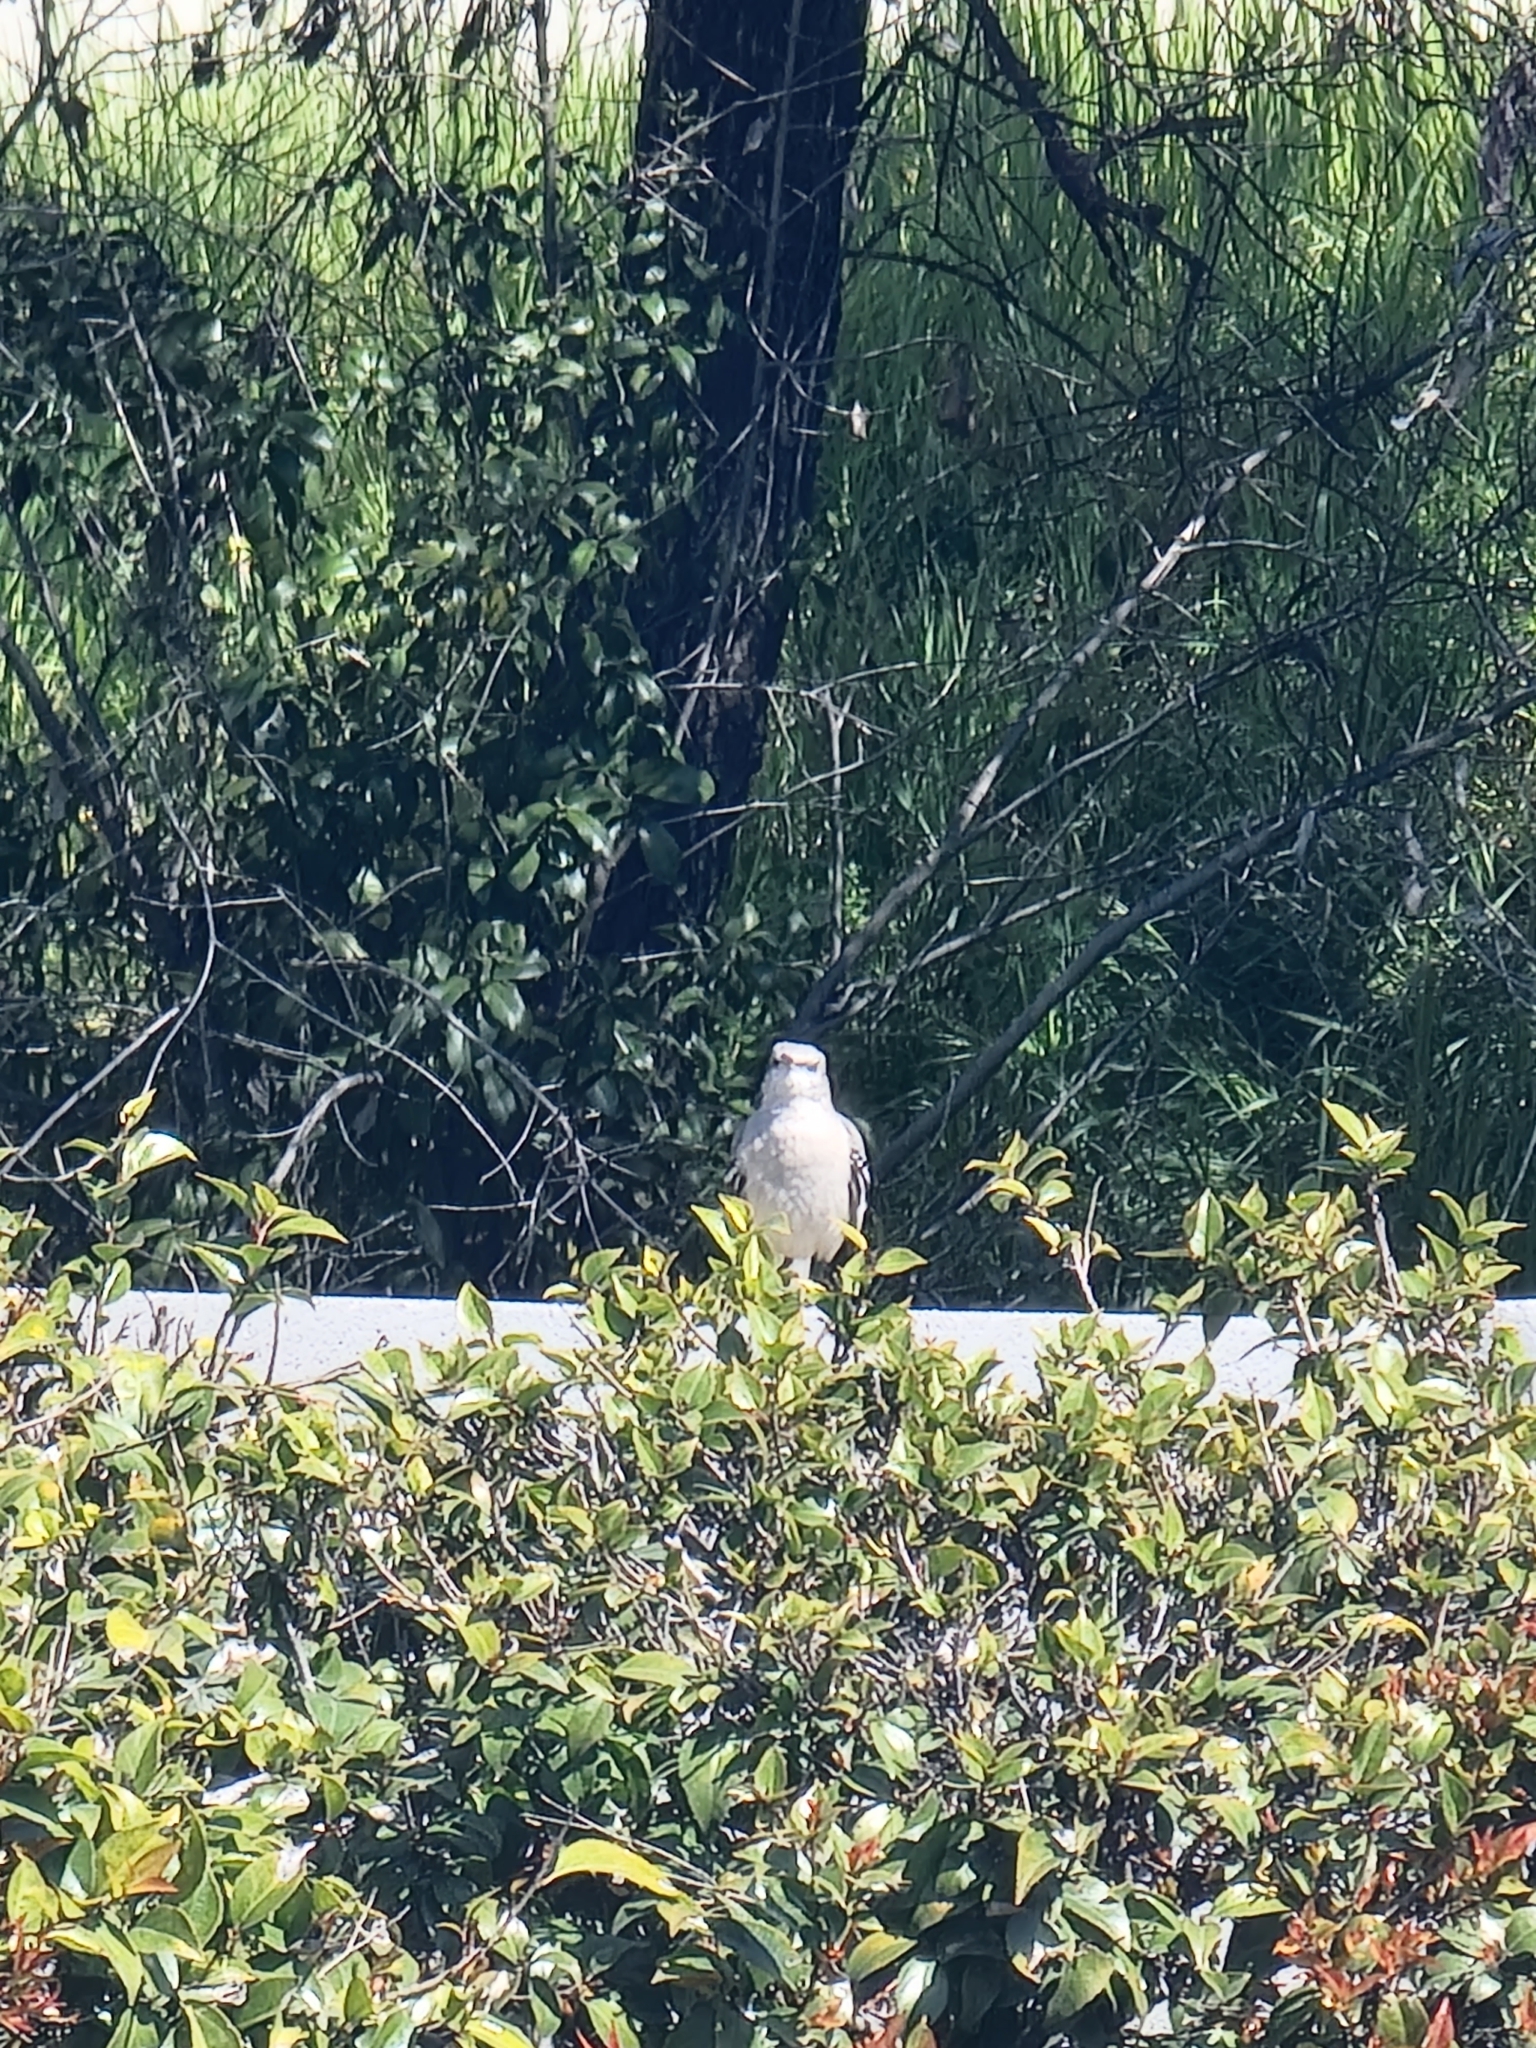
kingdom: Animalia
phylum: Chordata
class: Aves
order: Passeriformes
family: Mimidae
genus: Mimus
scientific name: Mimus polyglottos
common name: Northern mockingbird
